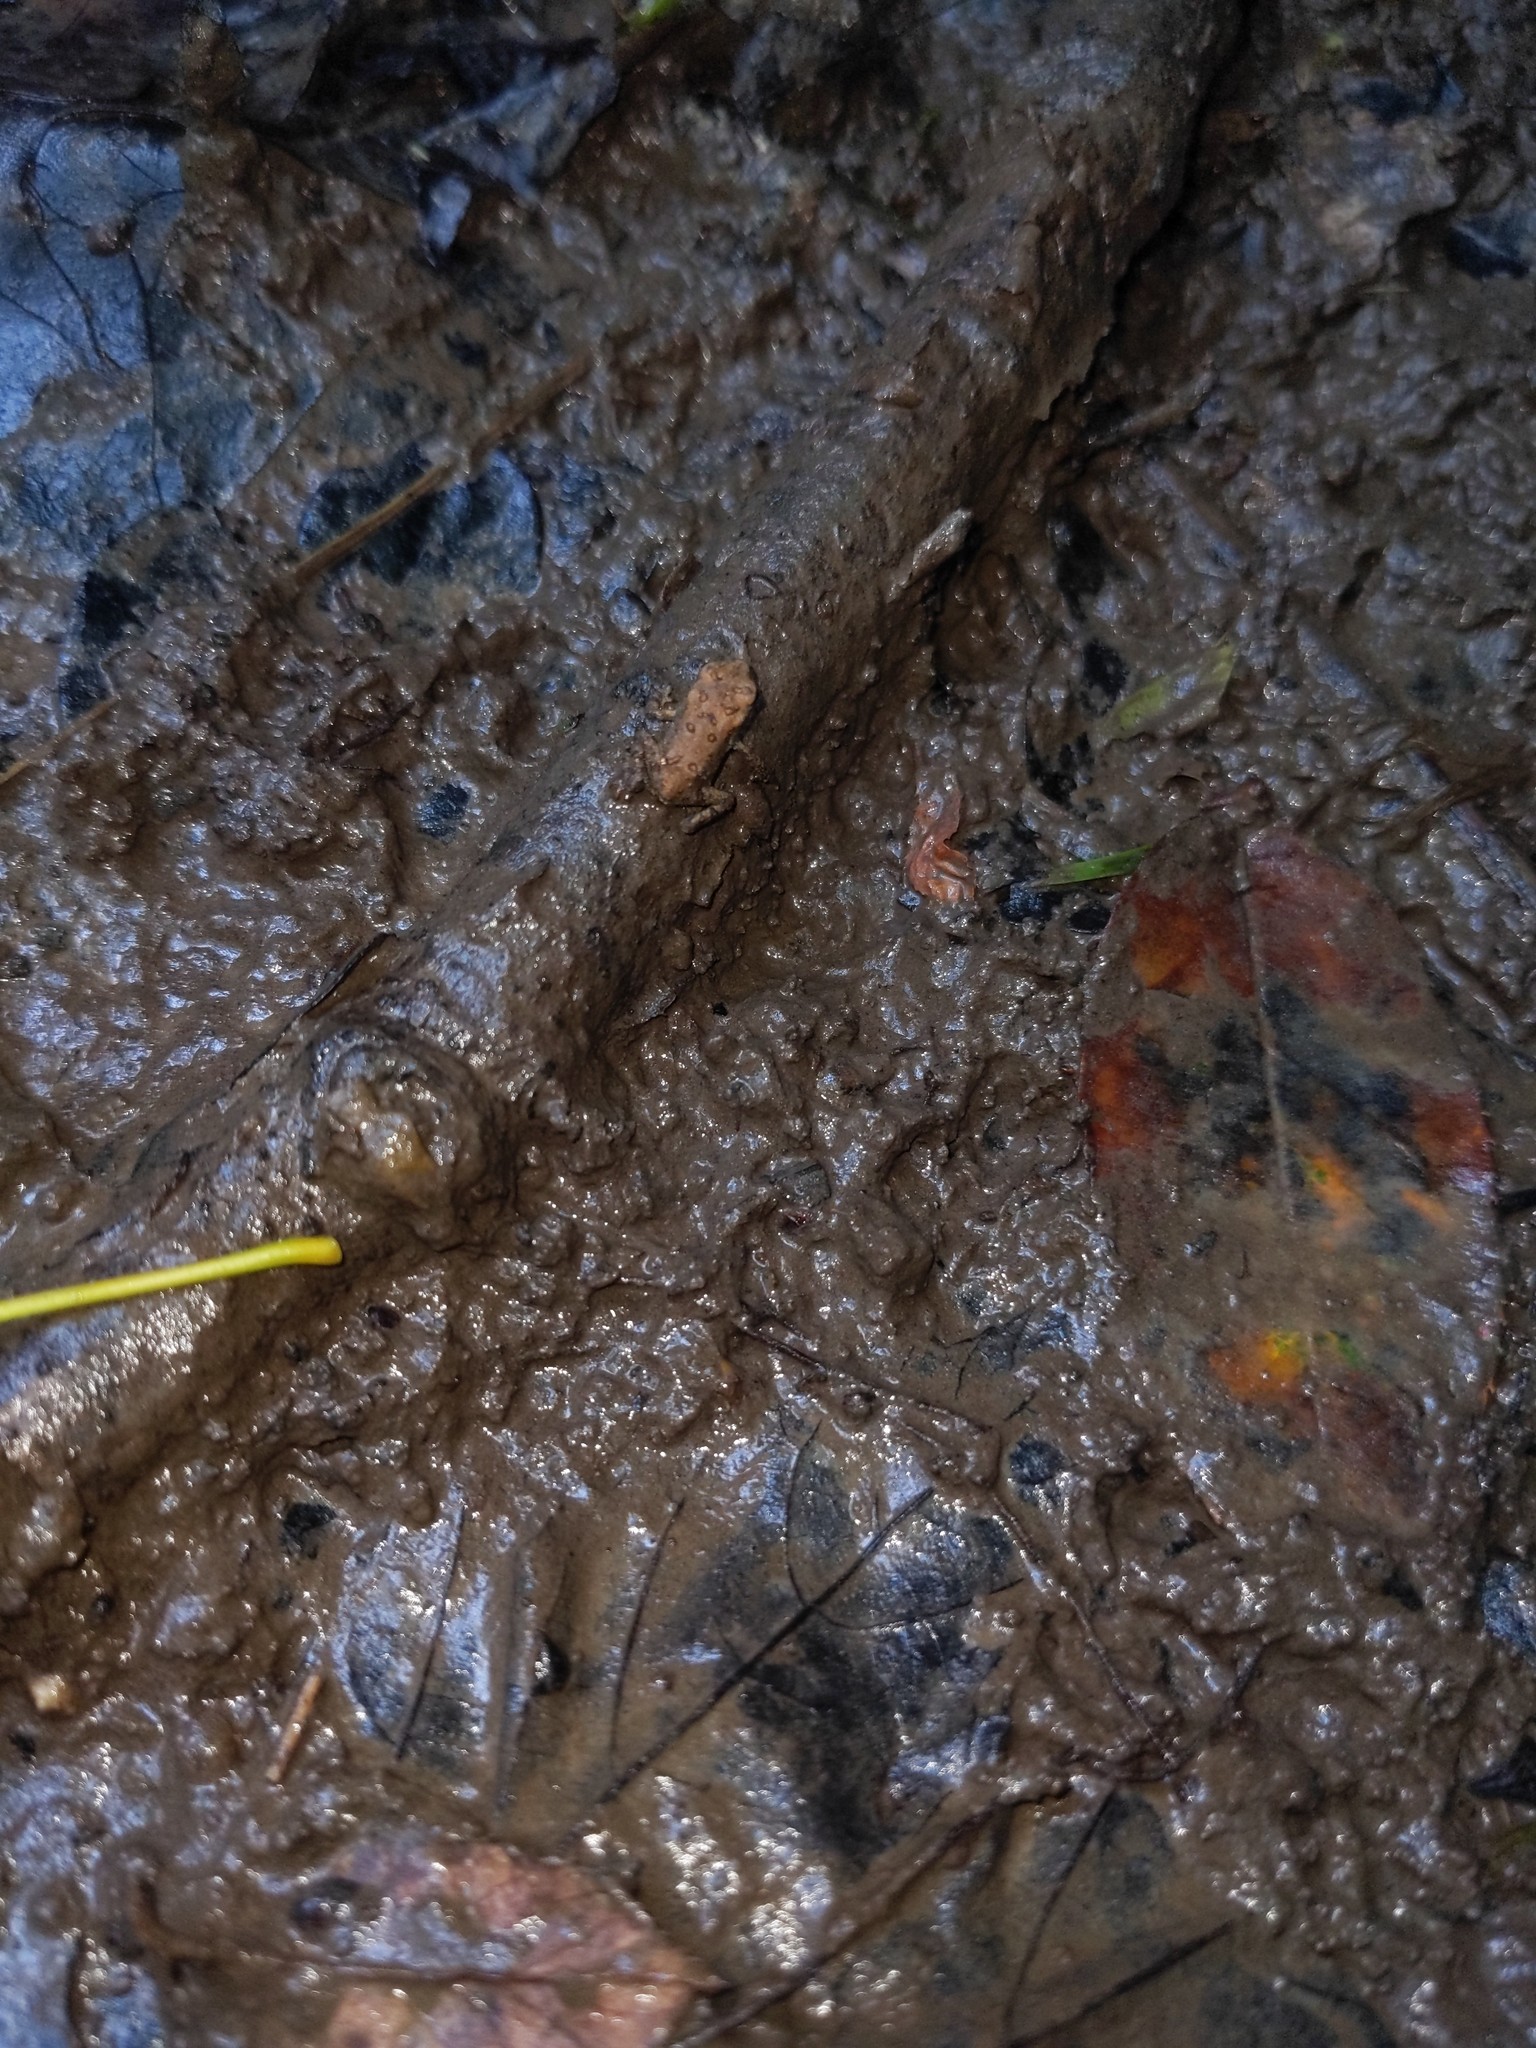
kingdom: Animalia
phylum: Chordata
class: Amphibia
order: Anura
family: Bufonidae
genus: Anaxyrus
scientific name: Anaxyrus americanus
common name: American toad
